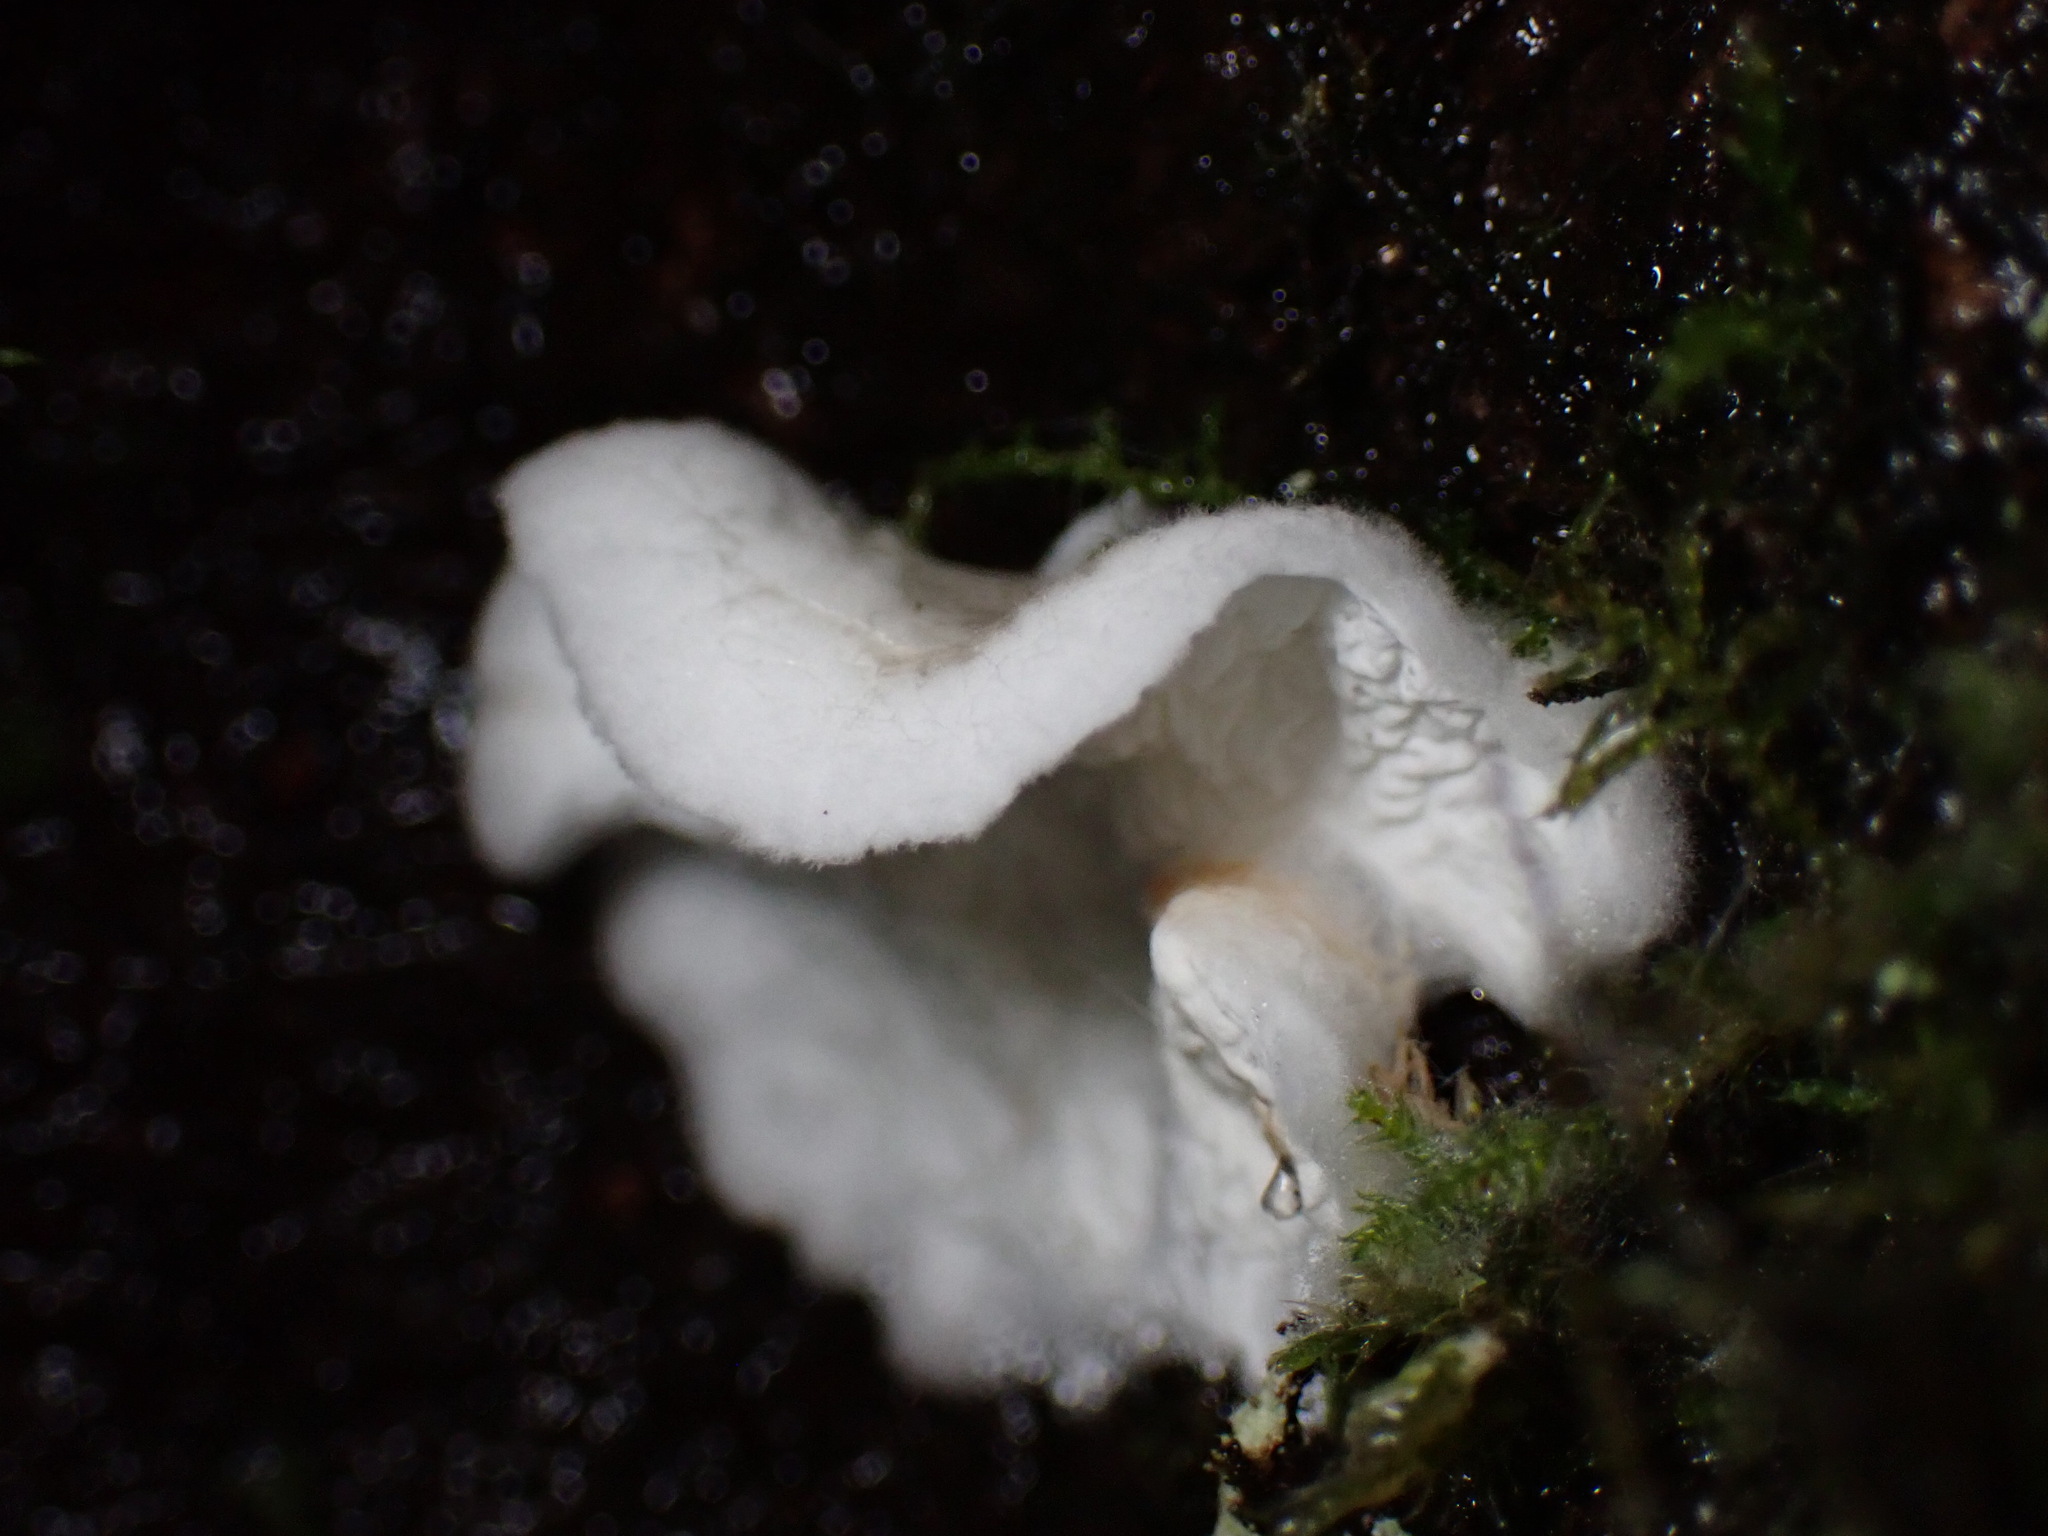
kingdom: Fungi
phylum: Basidiomycota
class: Agaricomycetes
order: Agaricales
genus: Plicatura
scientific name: Plicatura nivea
